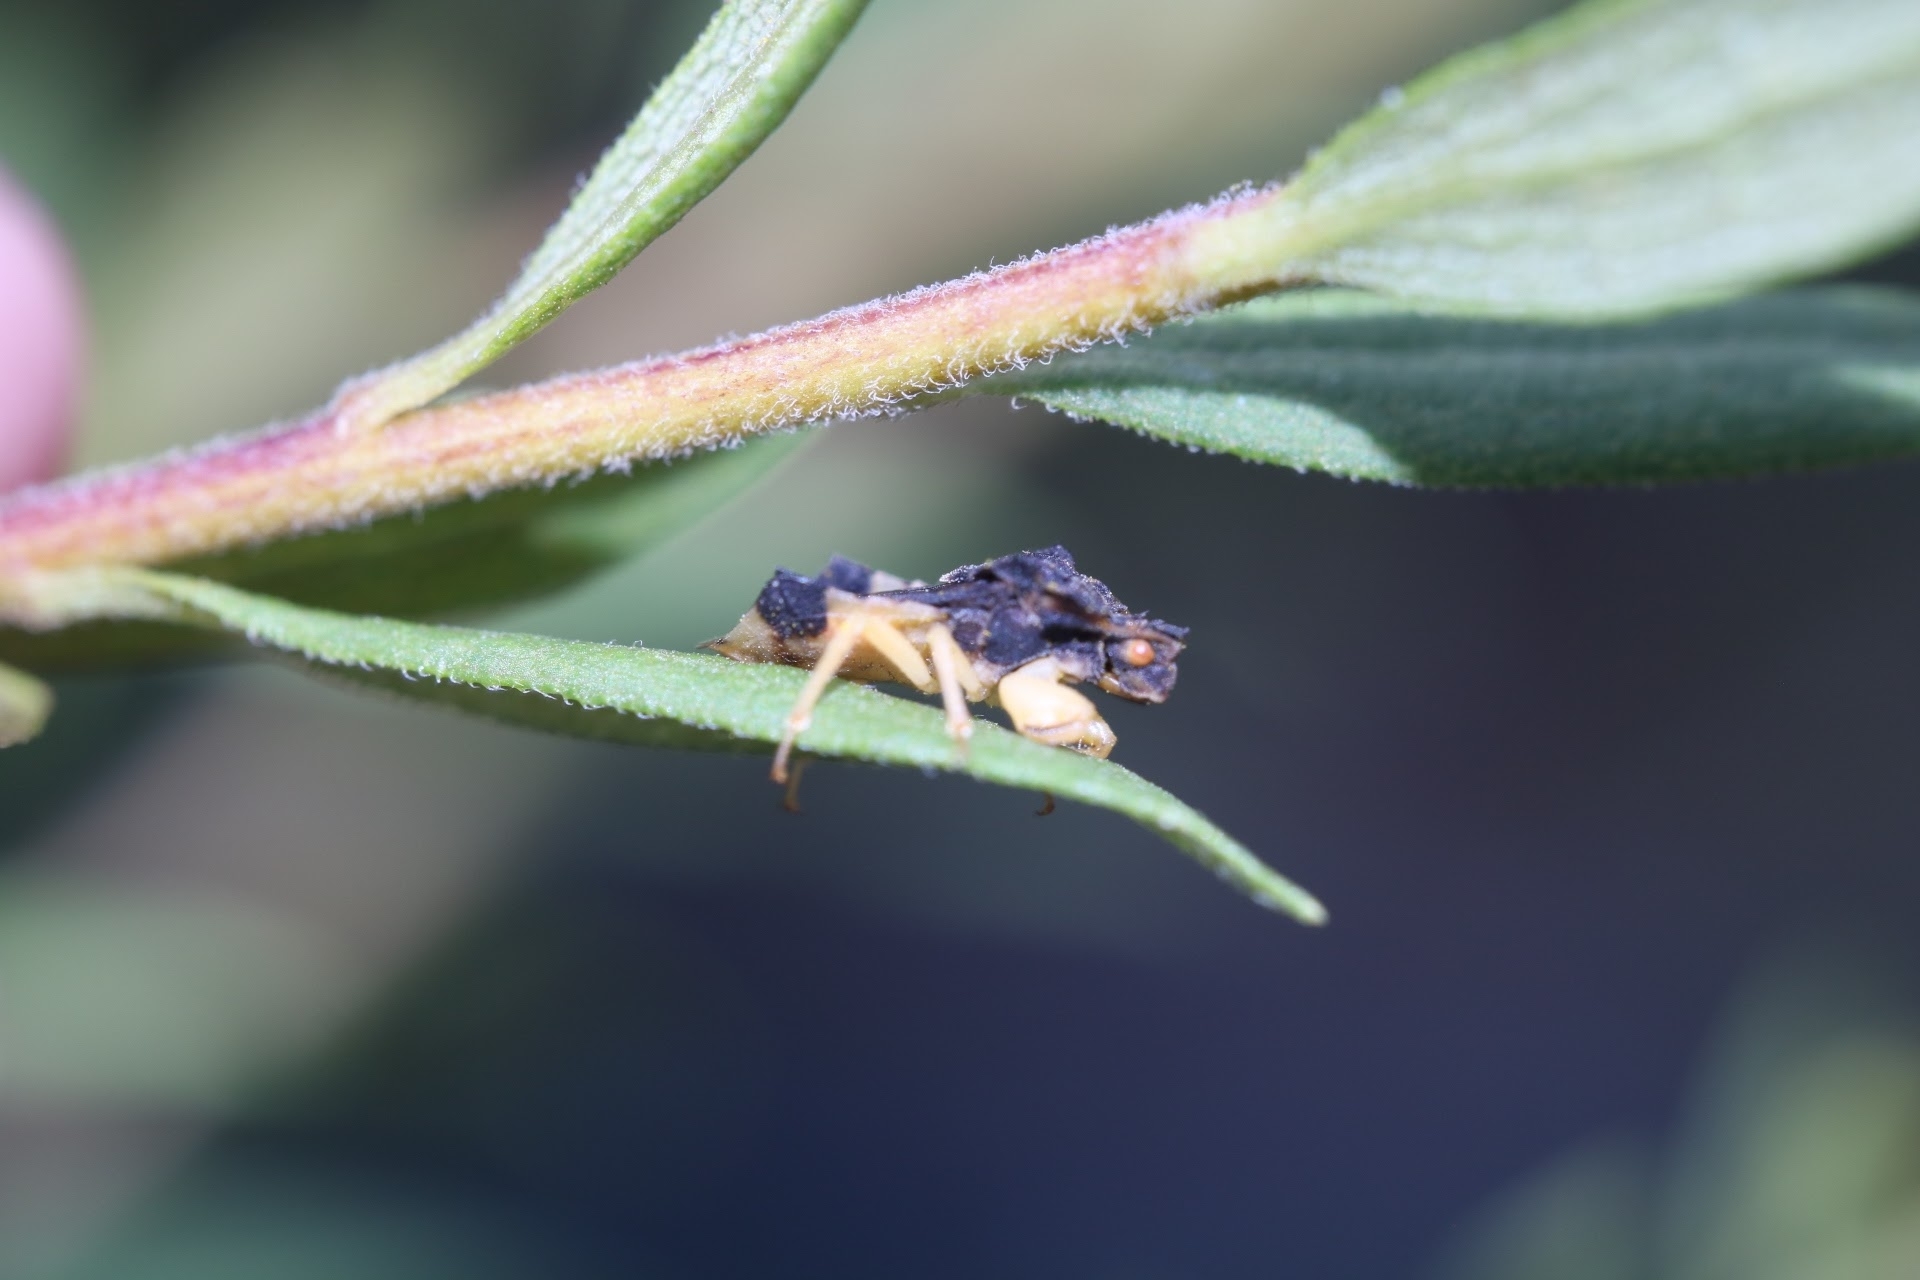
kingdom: Animalia
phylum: Arthropoda
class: Insecta
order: Hemiptera
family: Reduviidae
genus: Phymata
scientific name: Phymata pennsylvanica
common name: Pennsylvania ambush bug
